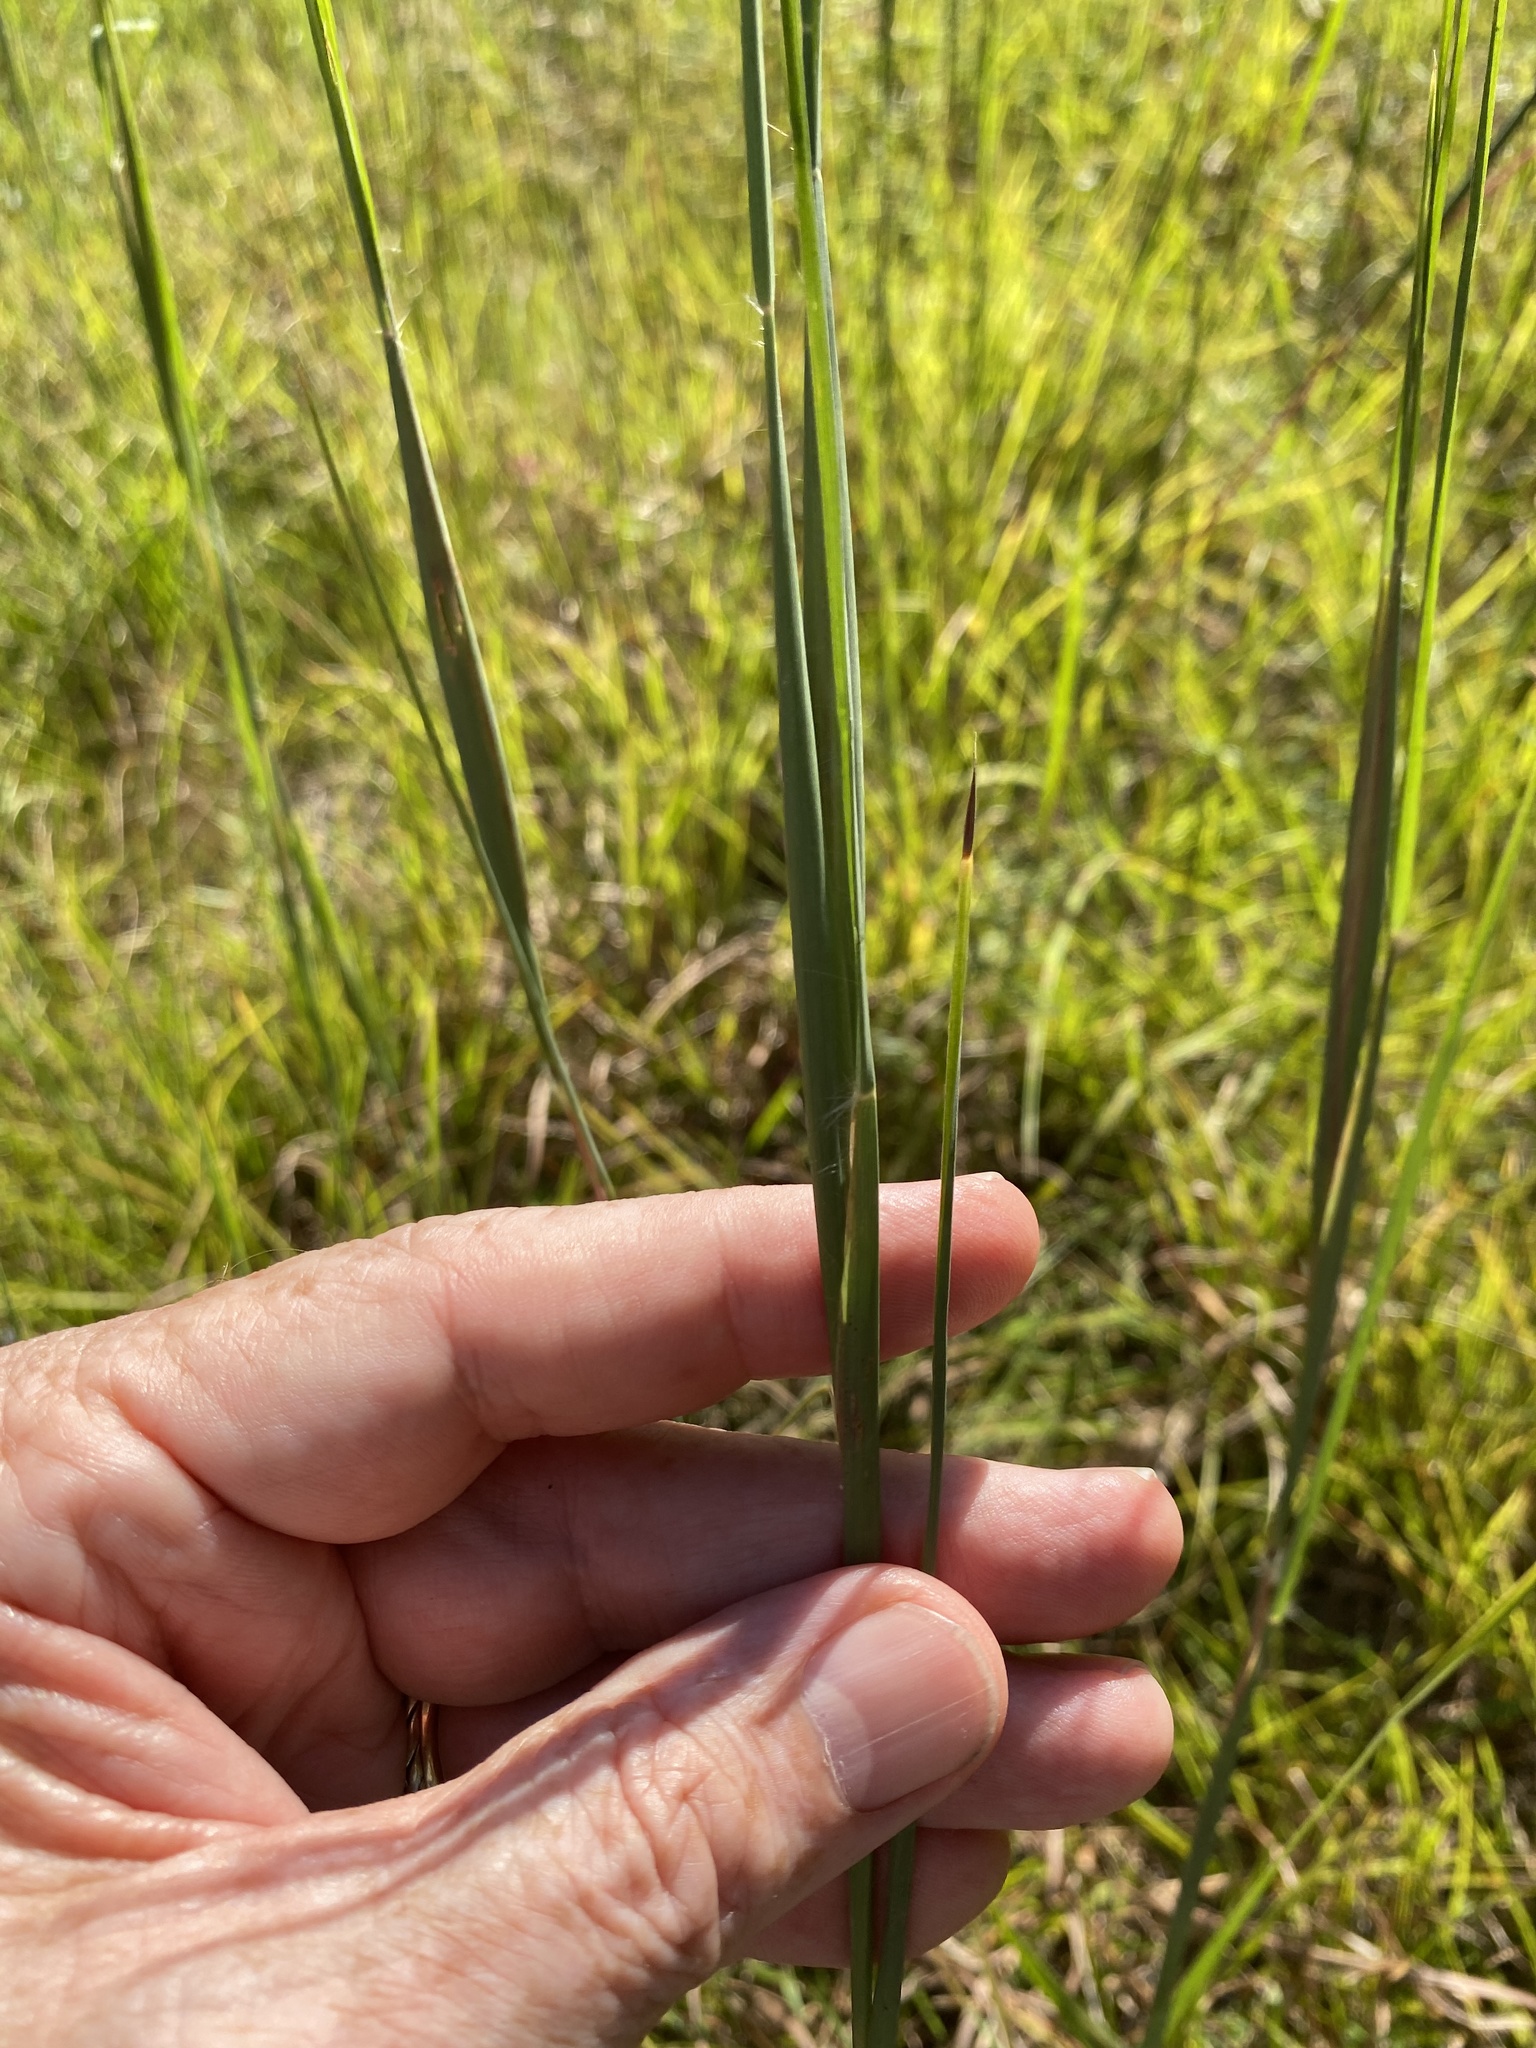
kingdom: Plantae
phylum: Tracheophyta
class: Liliopsida
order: Poales
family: Poaceae
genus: Andropogon
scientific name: Andropogon gyrans
